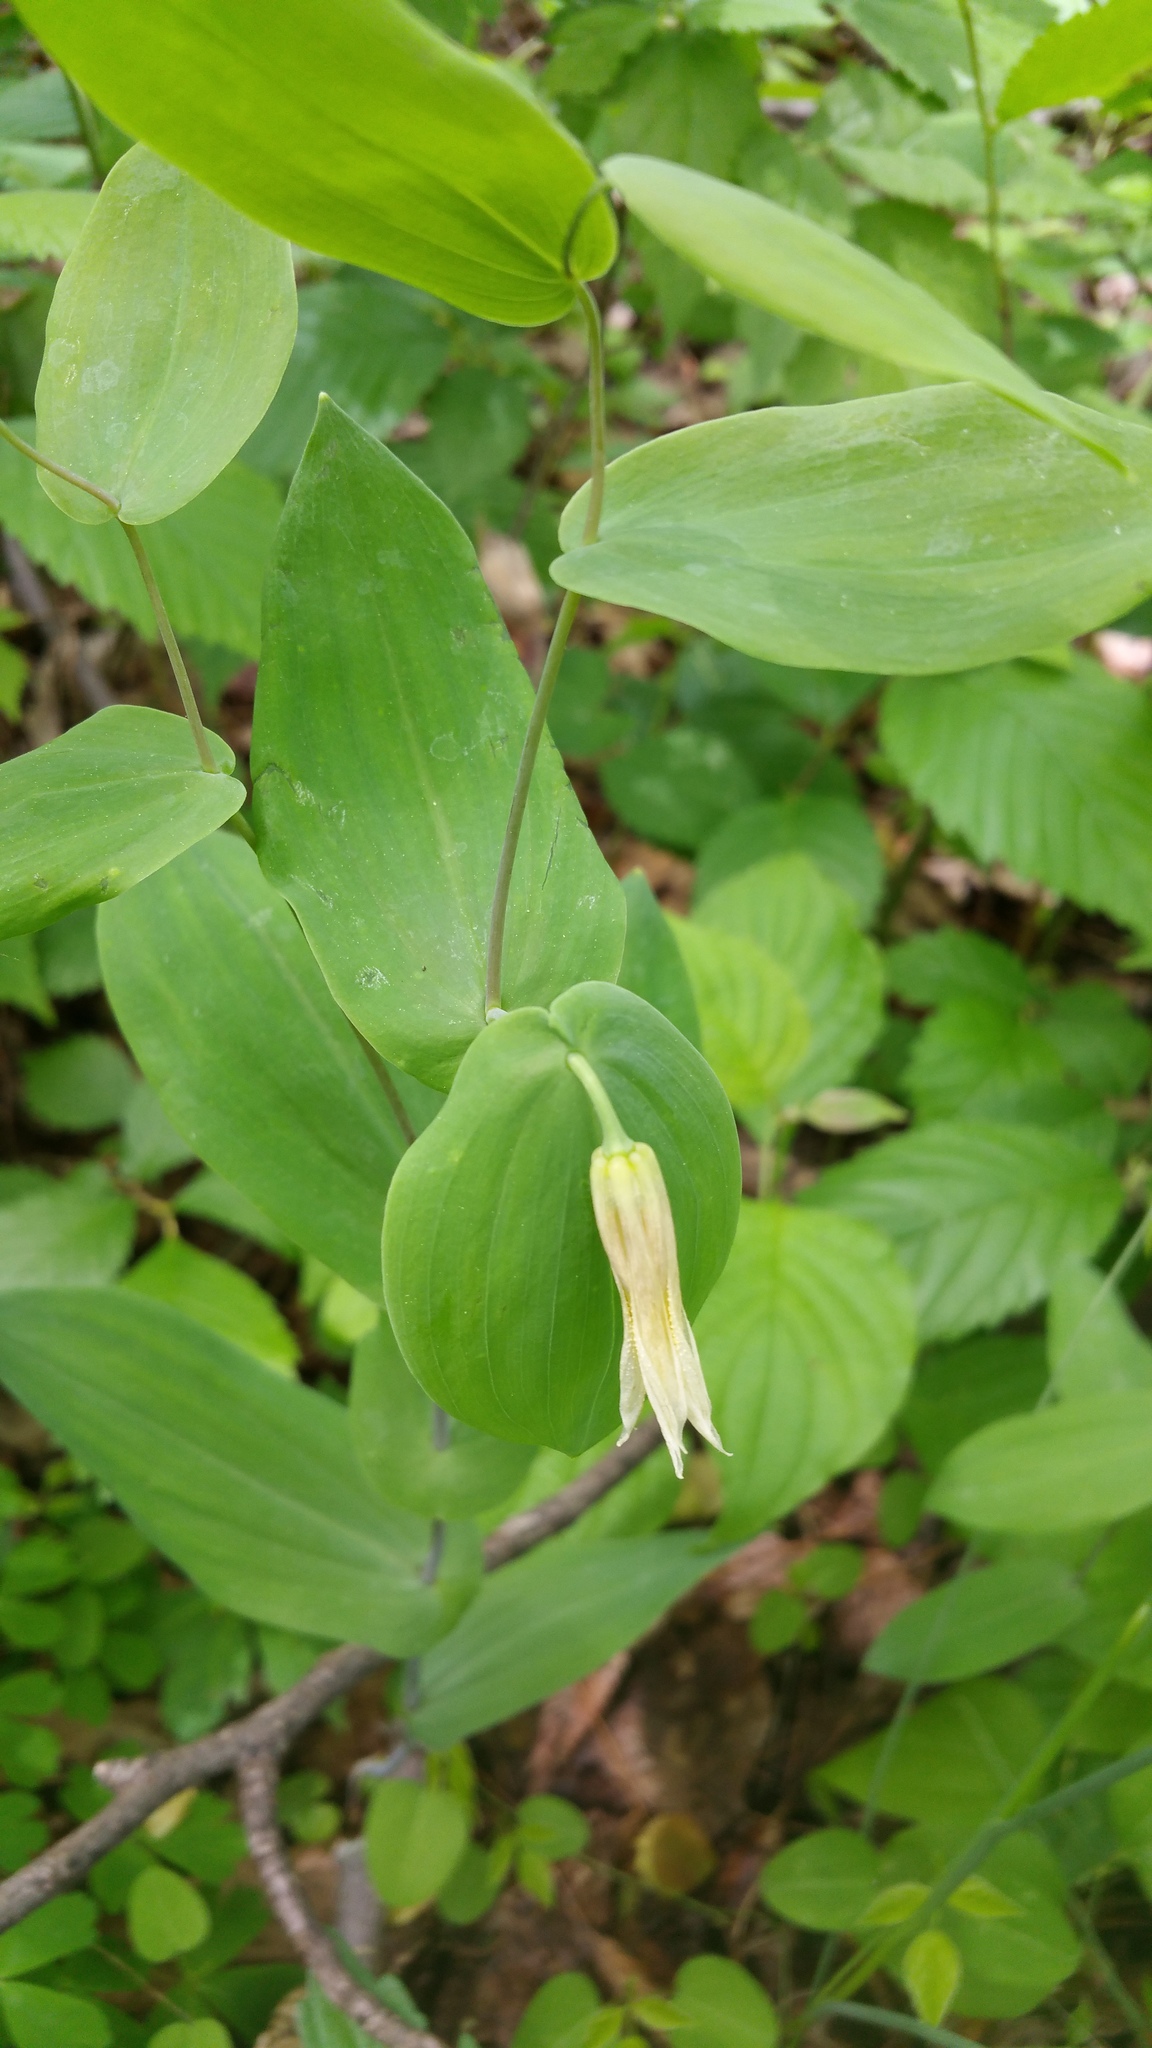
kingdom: Plantae
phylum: Tracheophyta
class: Liliopsida
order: Liliales
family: Colchicaceae
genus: Uvularia
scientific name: Uvularia perfoliata
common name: Perfoliate bellwort
